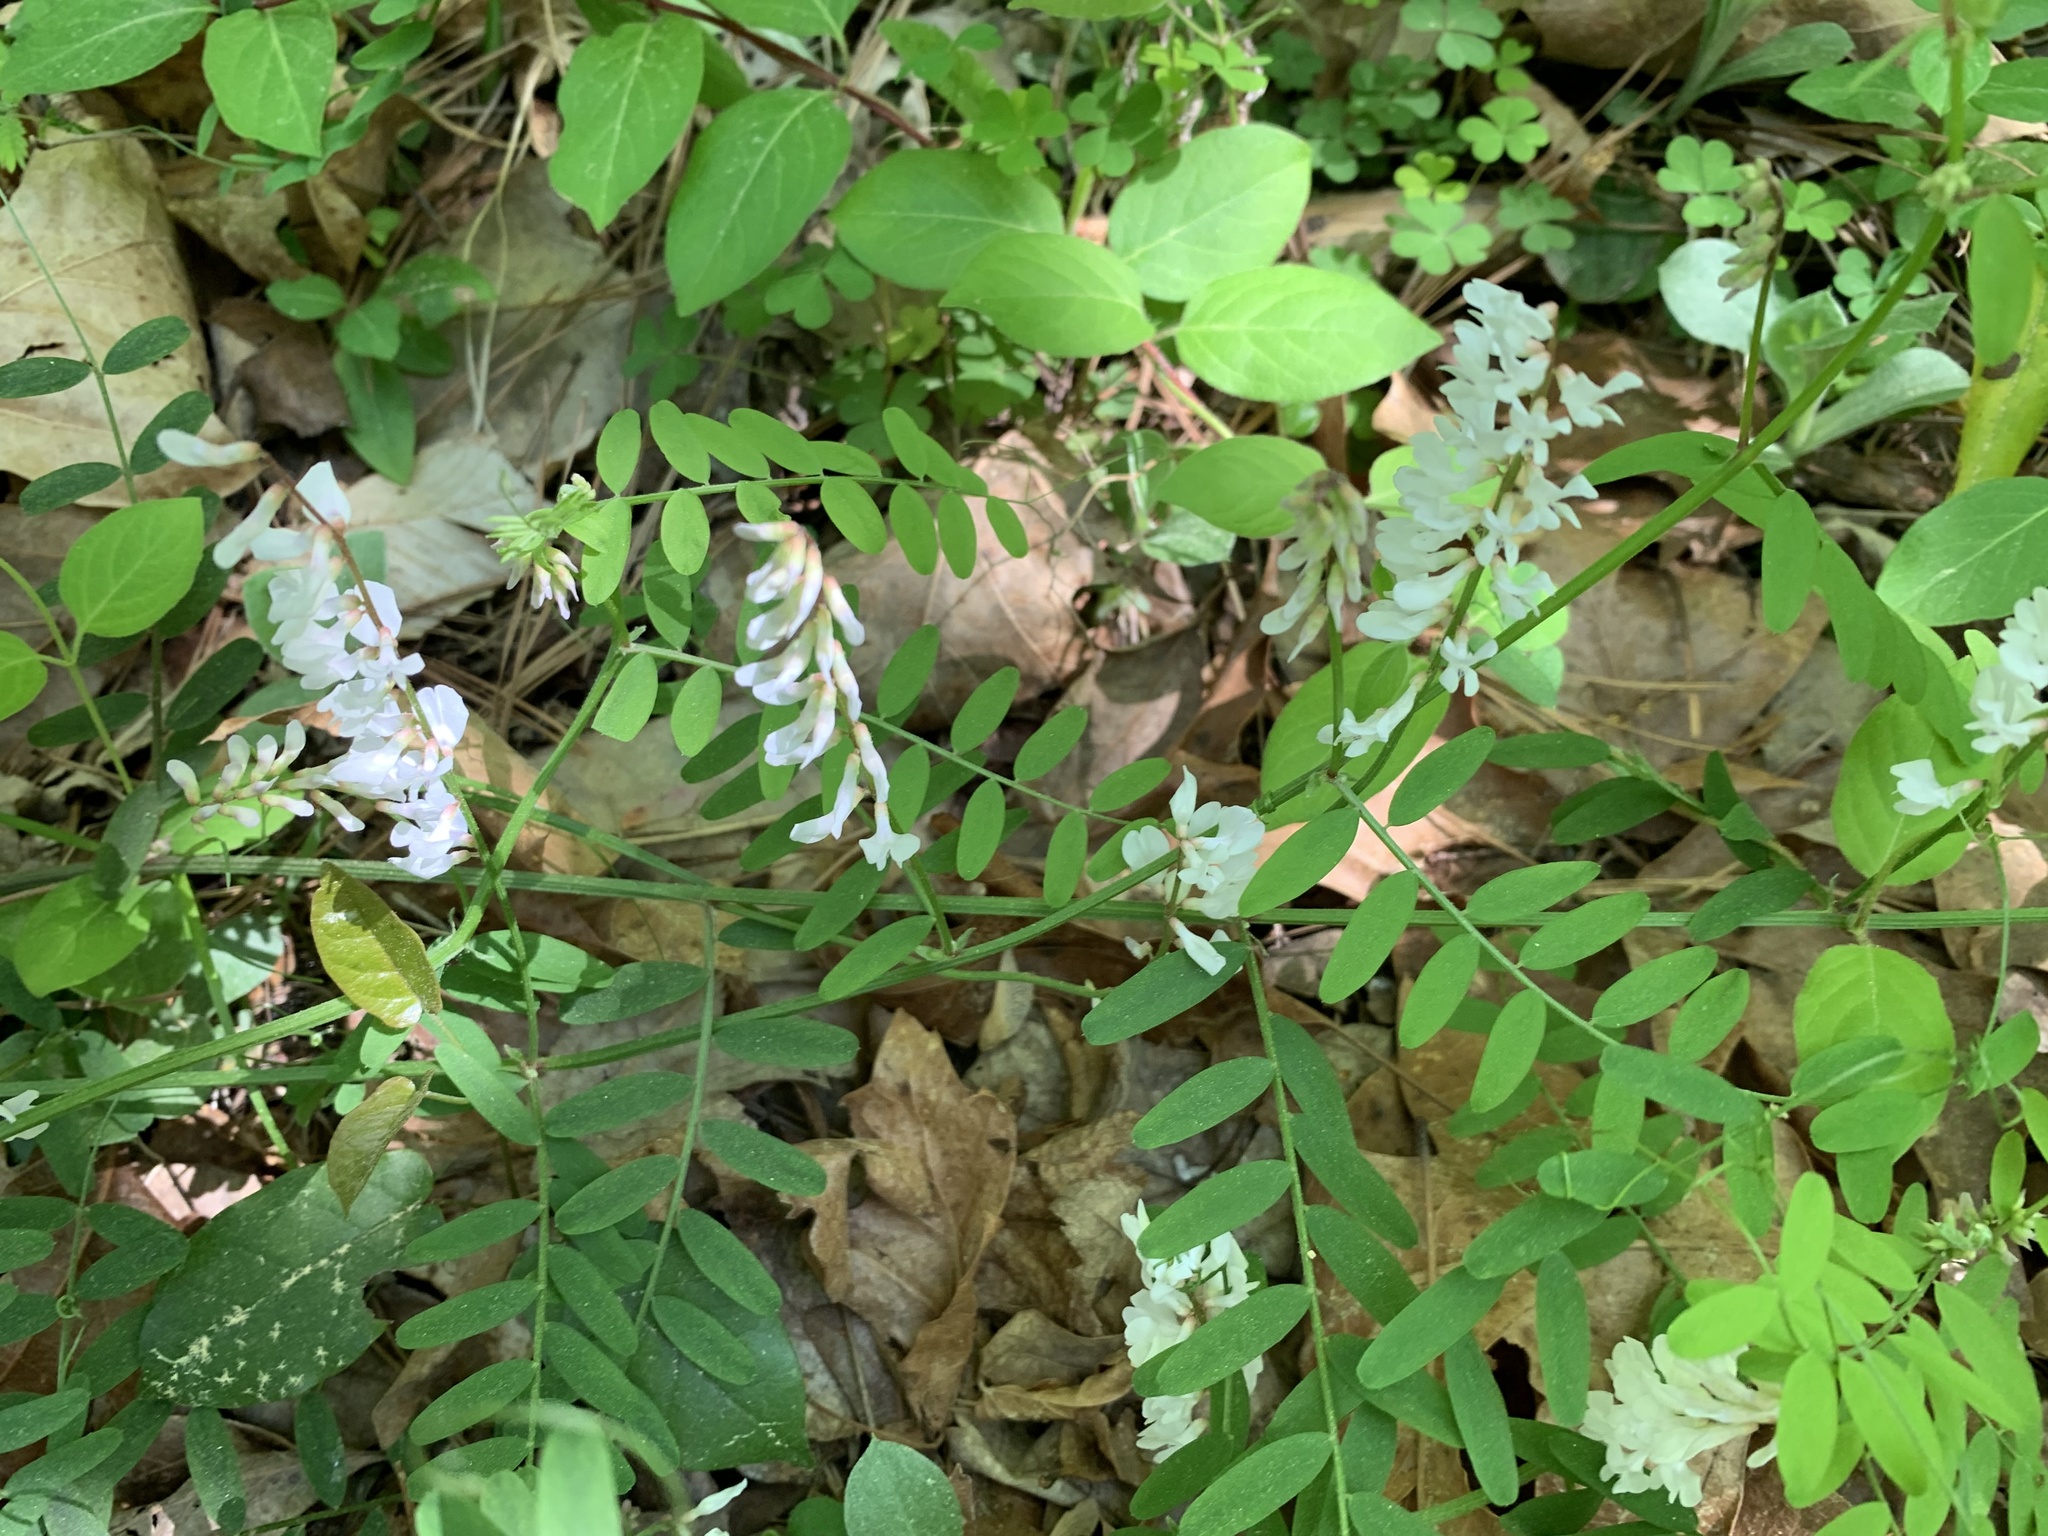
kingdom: Plantae
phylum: Tracheophyta
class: Magnoliopsida
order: Fabales
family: Fabaceae
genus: Vicia
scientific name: Vicia caroliniana
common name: Carolina vetch
